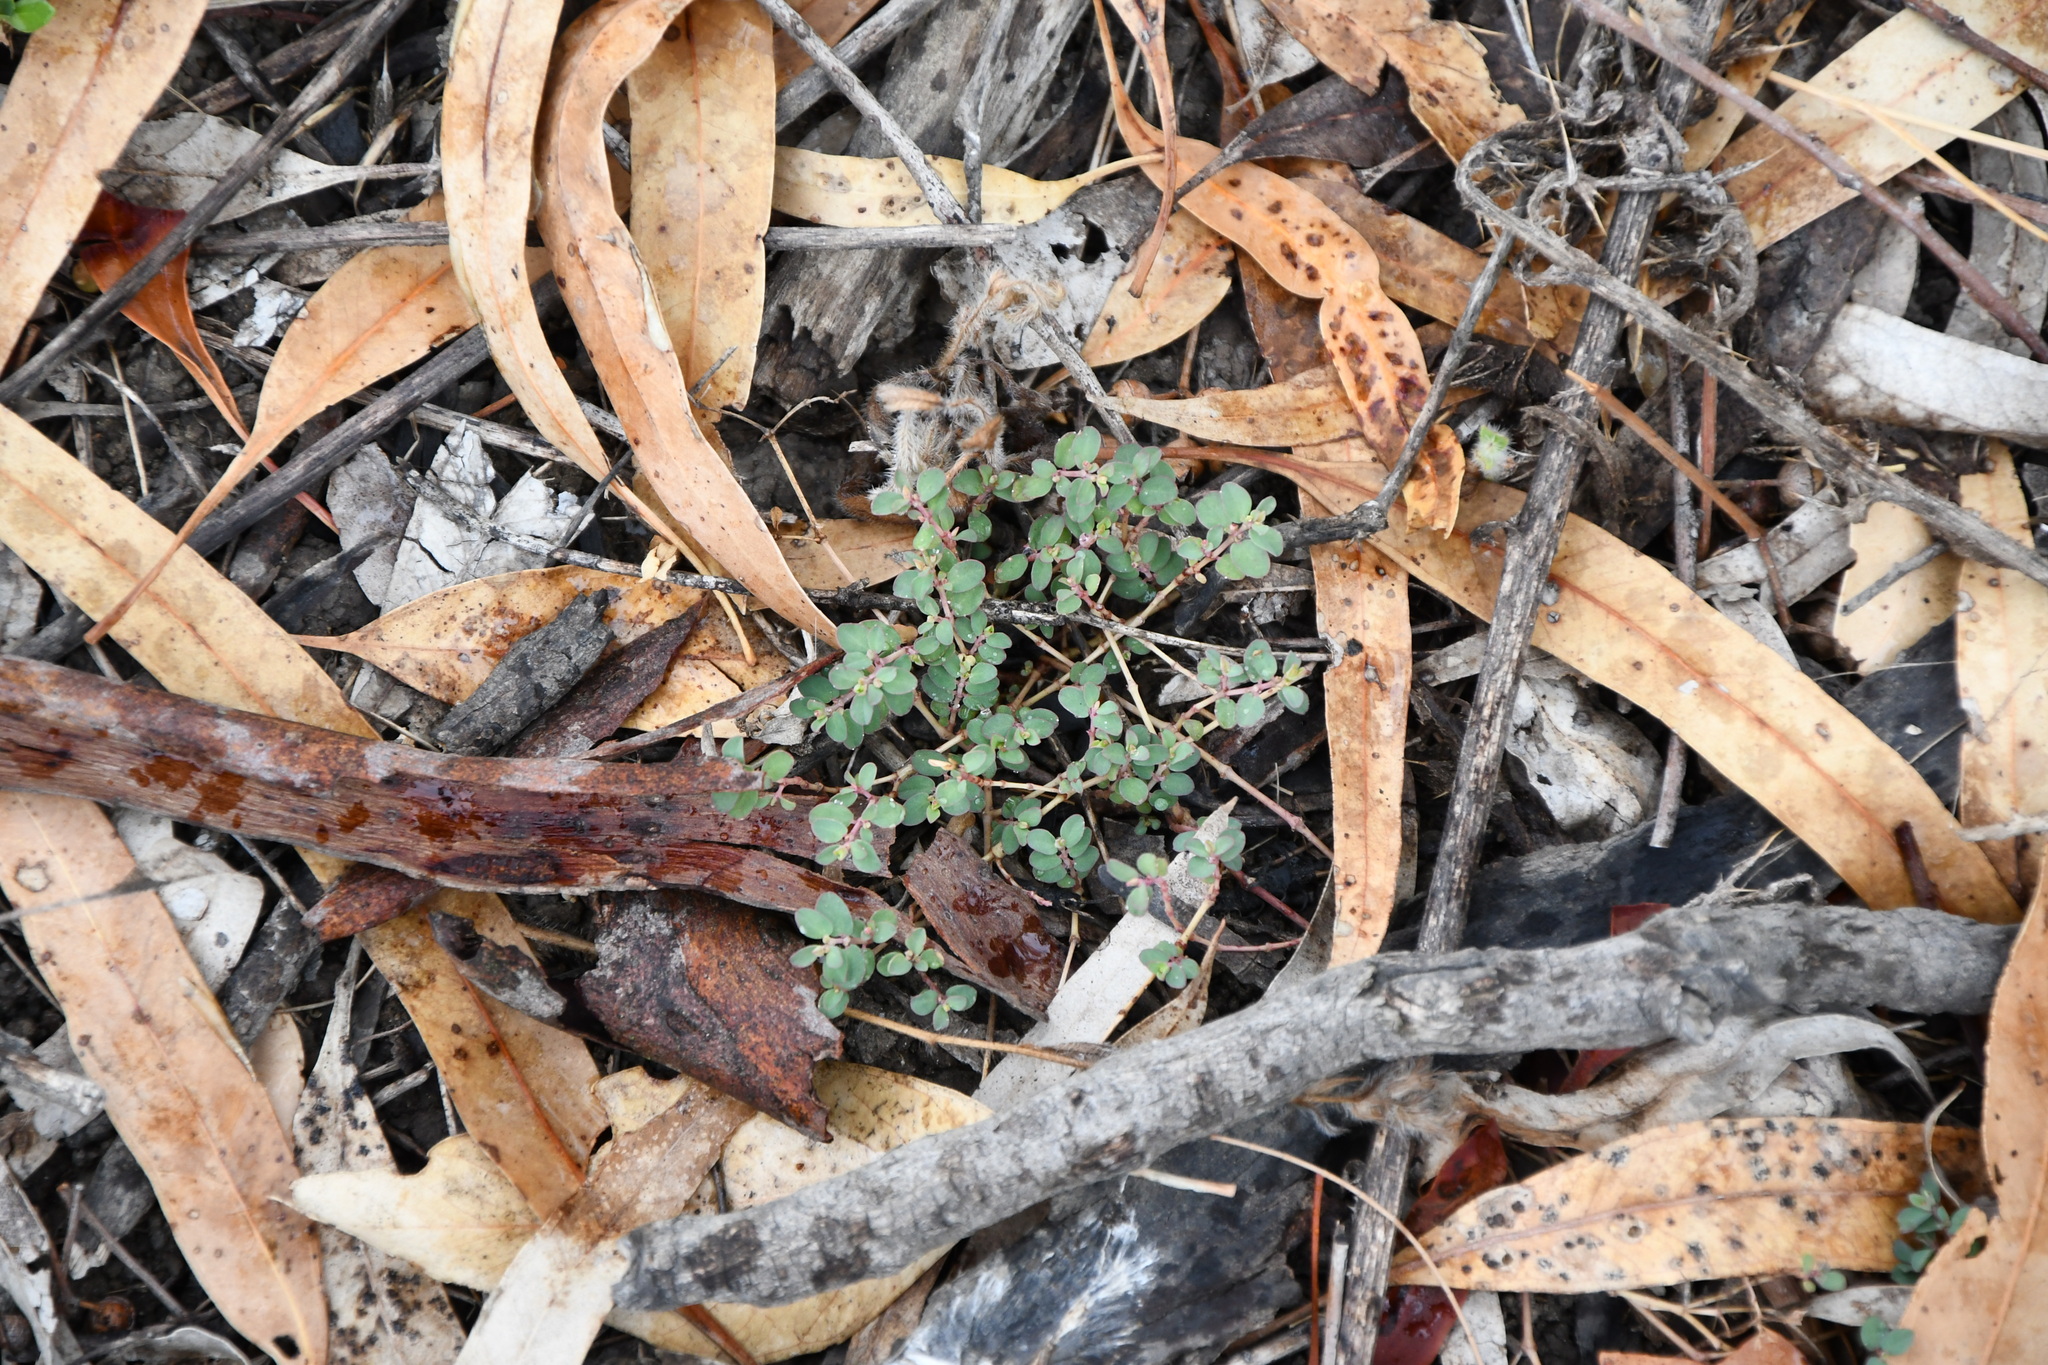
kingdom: Plantae
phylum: Tracheophyta
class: Magnoliopsida
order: Malpighiales
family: Euphorbiaceae
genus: Euphorbia
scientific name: Euphorbia prostrata
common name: Prostrate sandmat
